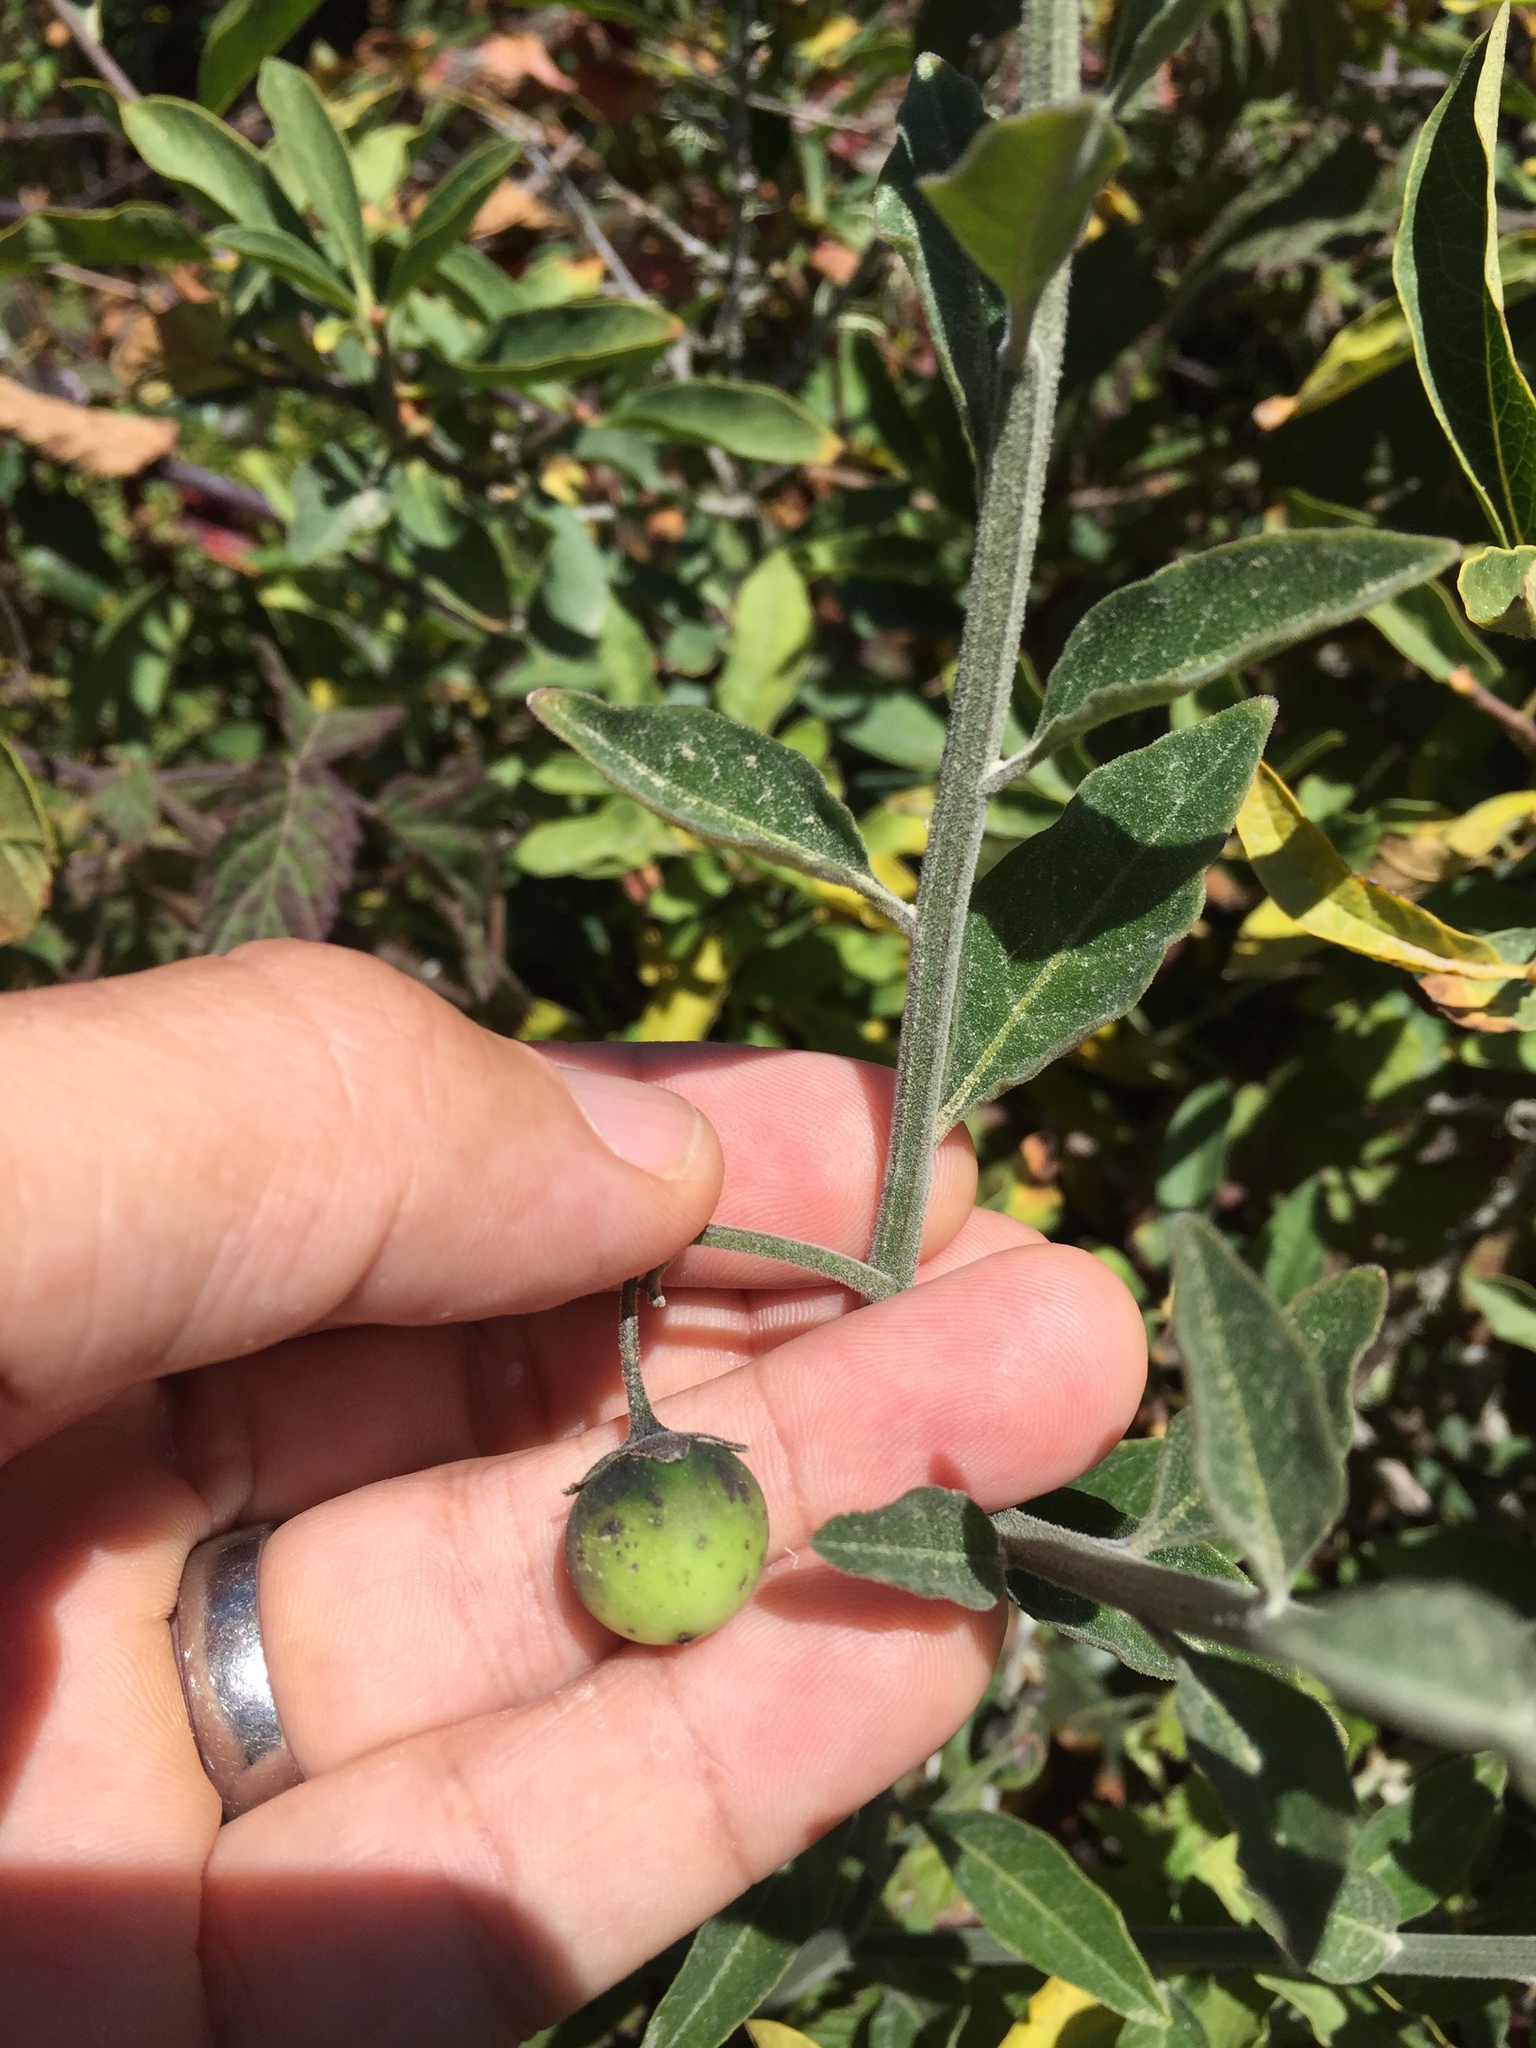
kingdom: Plantae
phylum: Tracheophyta
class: Magnoliopsida
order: Solanales
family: Solanaceae
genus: Solanum
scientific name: Solanum umbelliferum
